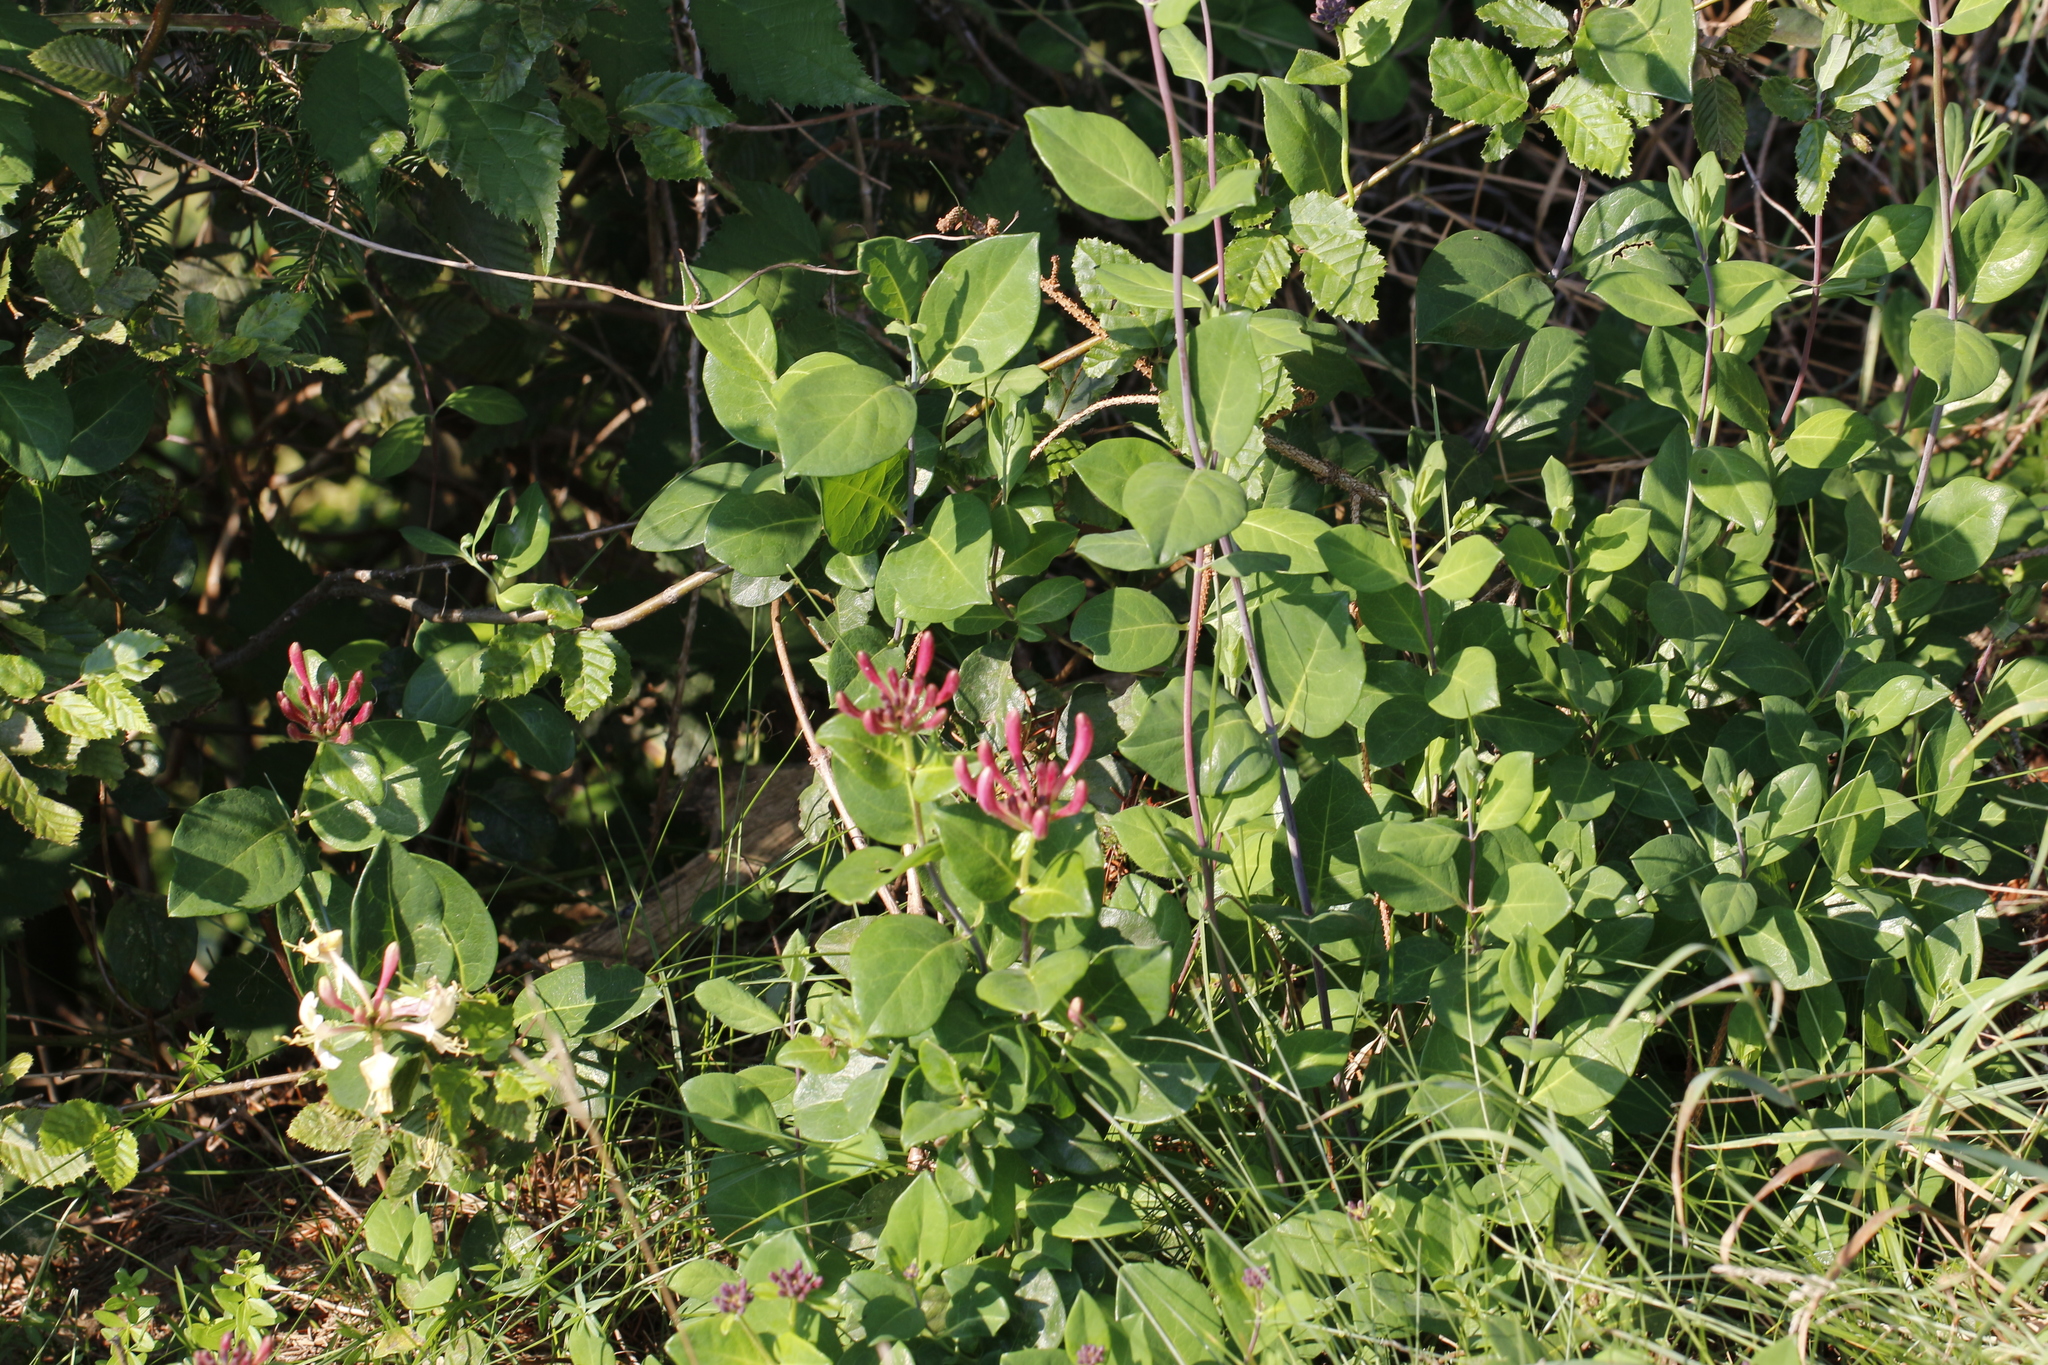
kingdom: Plantae
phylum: Tracheophyta
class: Magnoliopsida
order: Dipsacales
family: Caprifoliaceae
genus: Lonicera
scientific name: Lonicera periclymenum
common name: European honeysuckle
